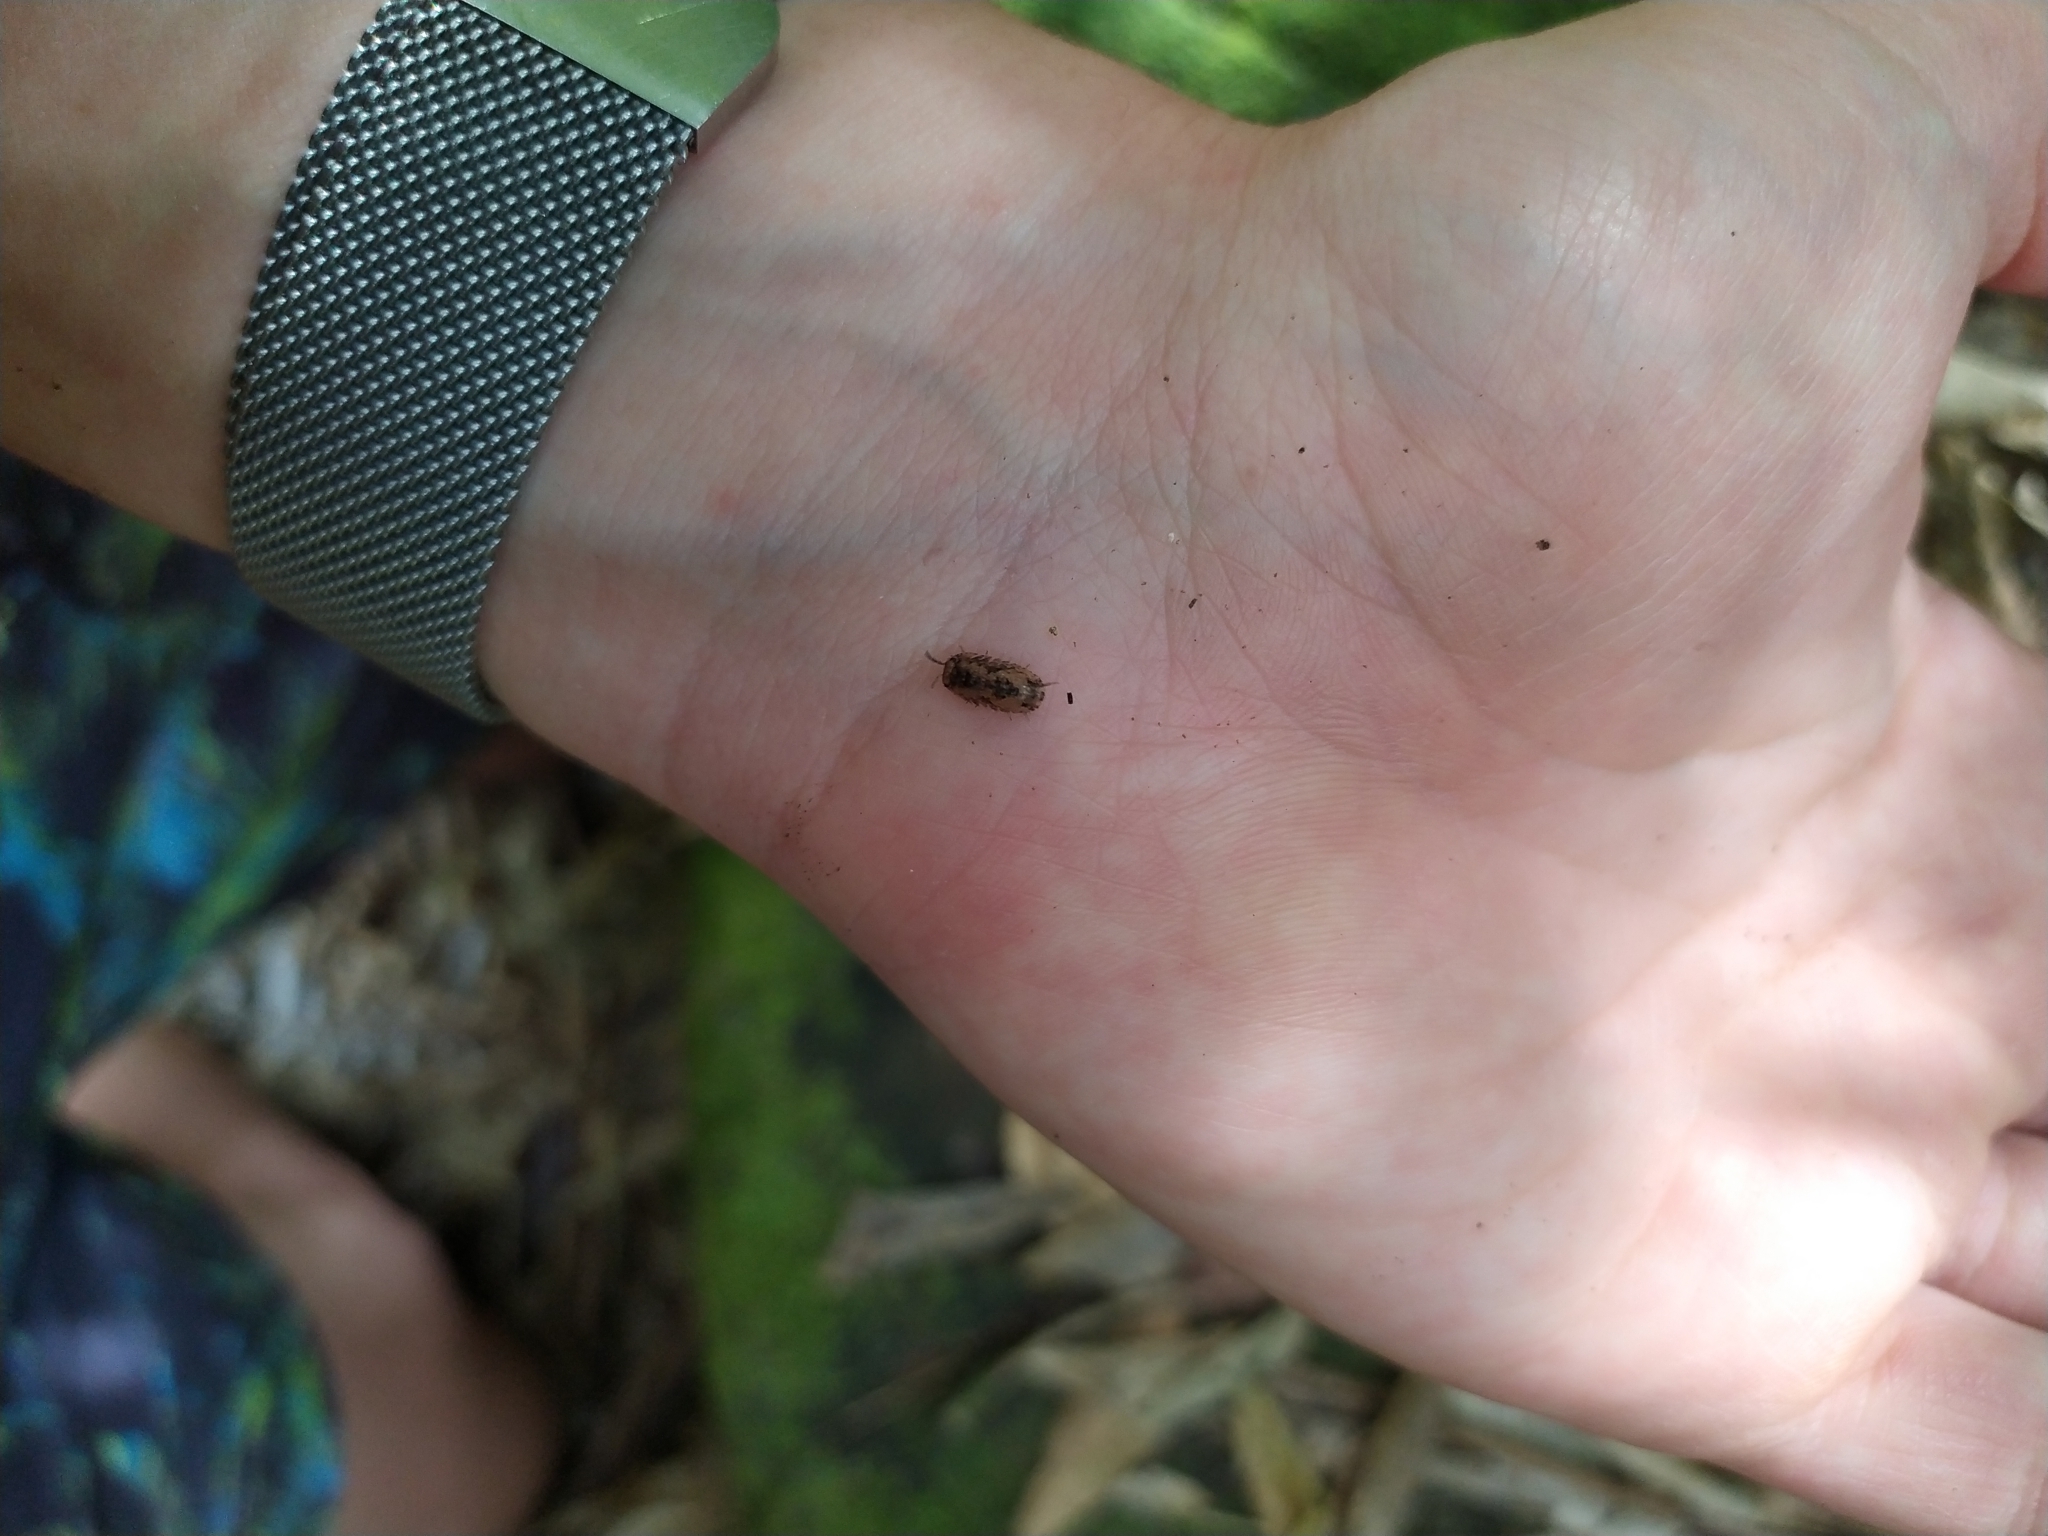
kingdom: Animalia
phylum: Arthropoda
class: Malacostraca
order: Isopoda
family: Armadillidae
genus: Cubaris
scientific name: Cubaris tarangensis
